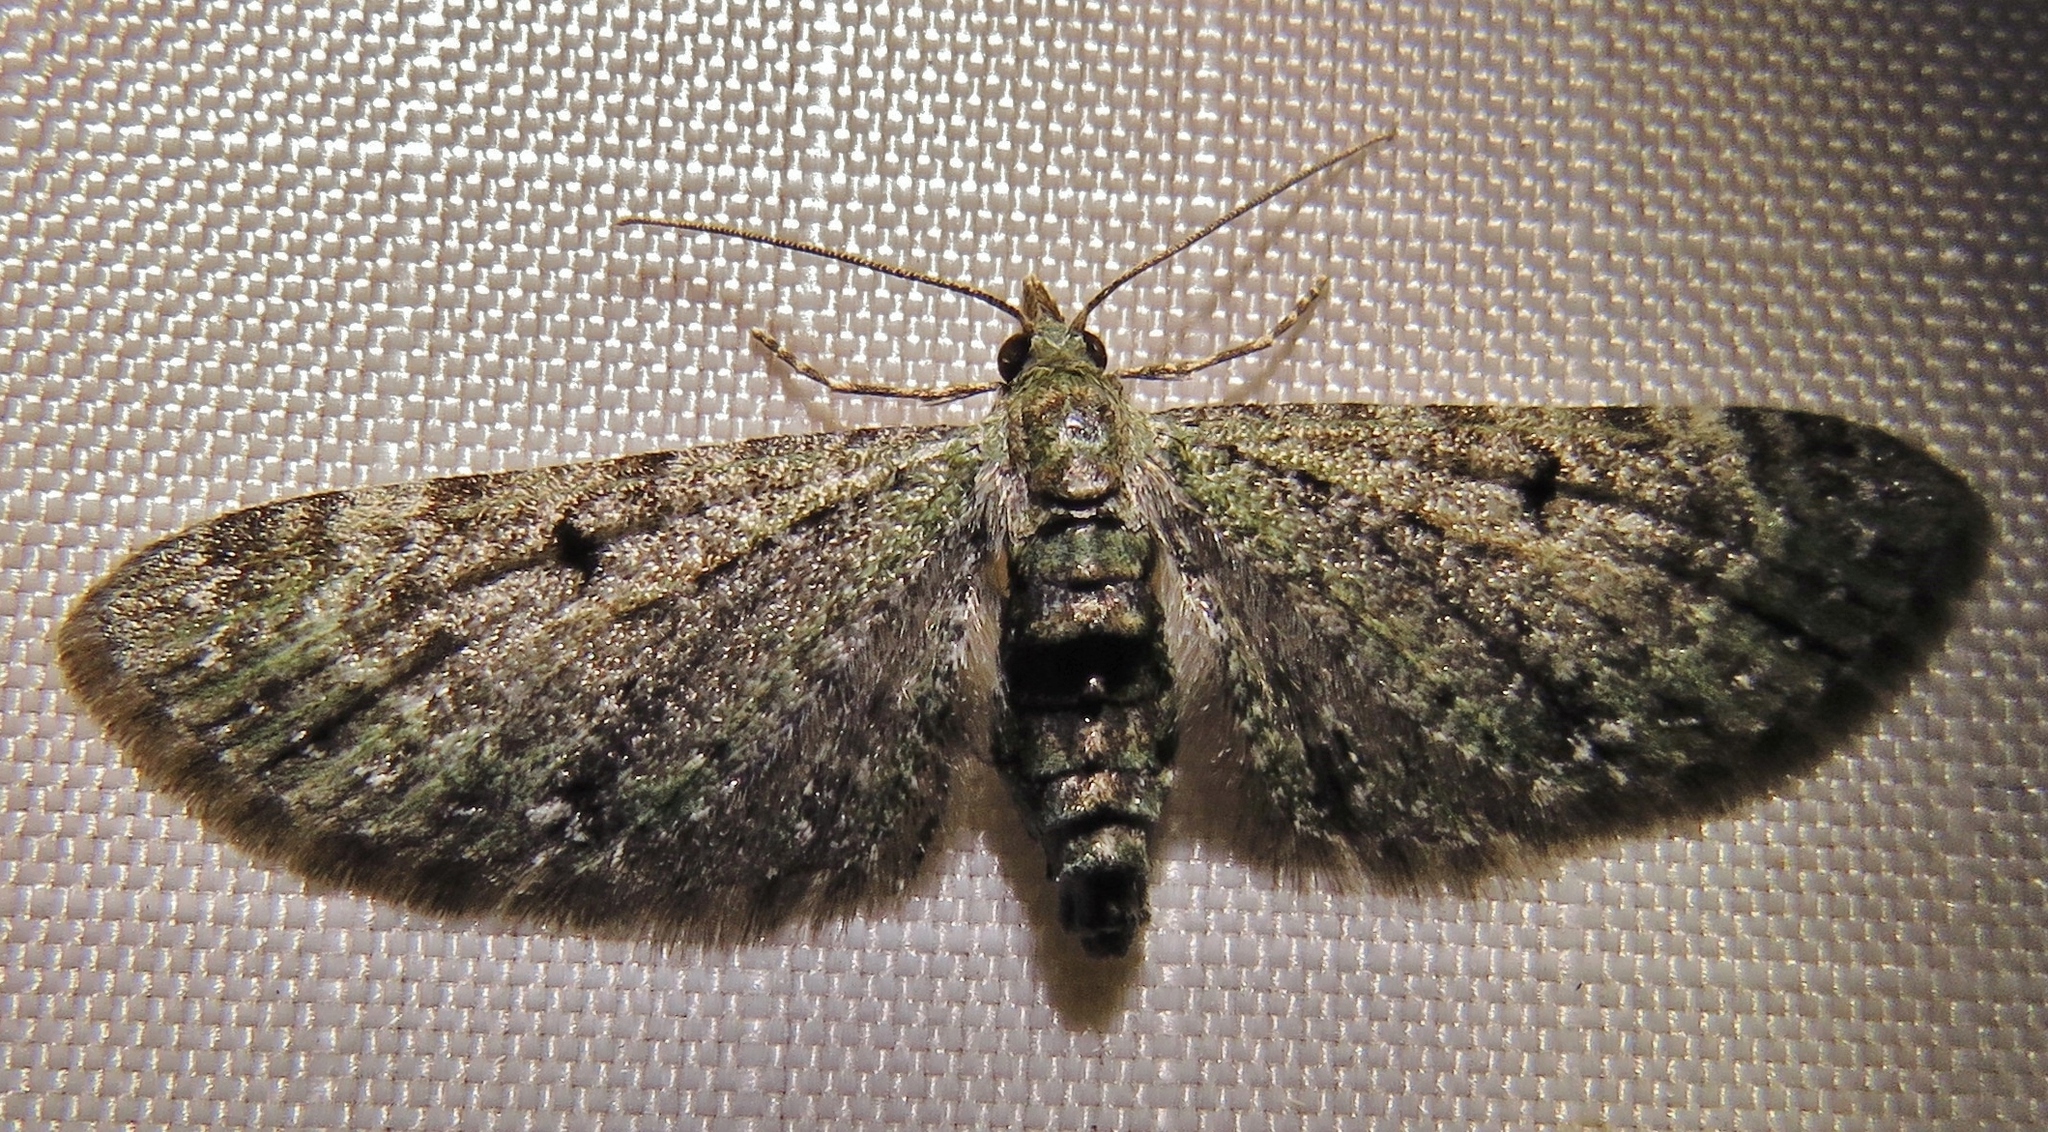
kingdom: Animalia
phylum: Arthropoda
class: Insecta
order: Lepidoptera
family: Geometridae
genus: Eupithecia
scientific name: Eupithecia miserulata
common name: Common eupithecia
